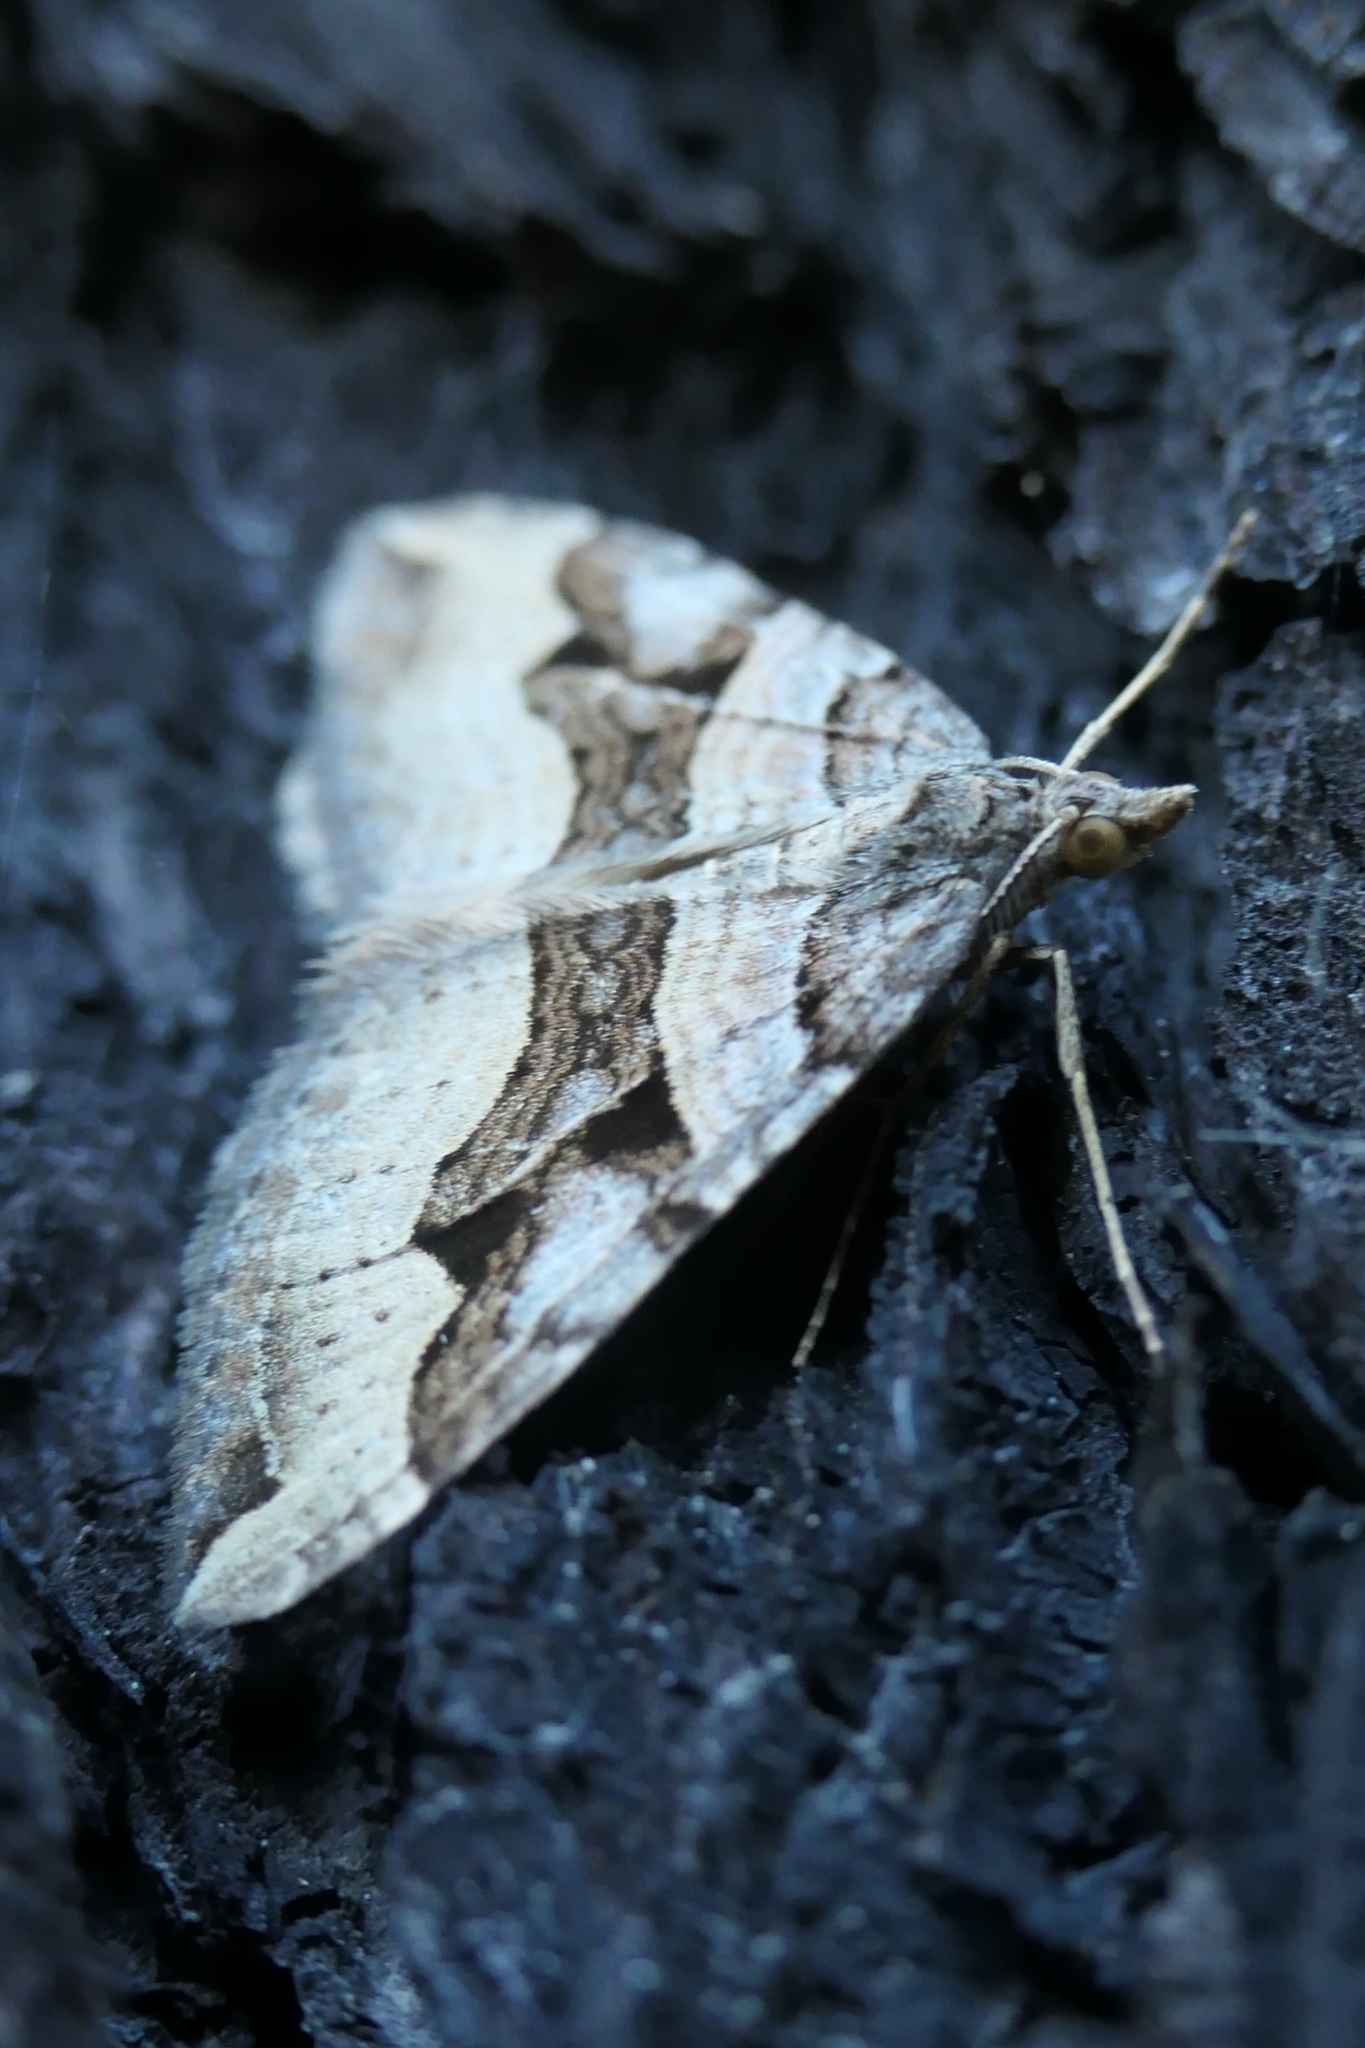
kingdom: Animalia
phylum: Arthropoda
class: Insecta
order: Lepidoptera
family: Geometridae
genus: Xanthorhoe
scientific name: Xanthorhoe semifissata
